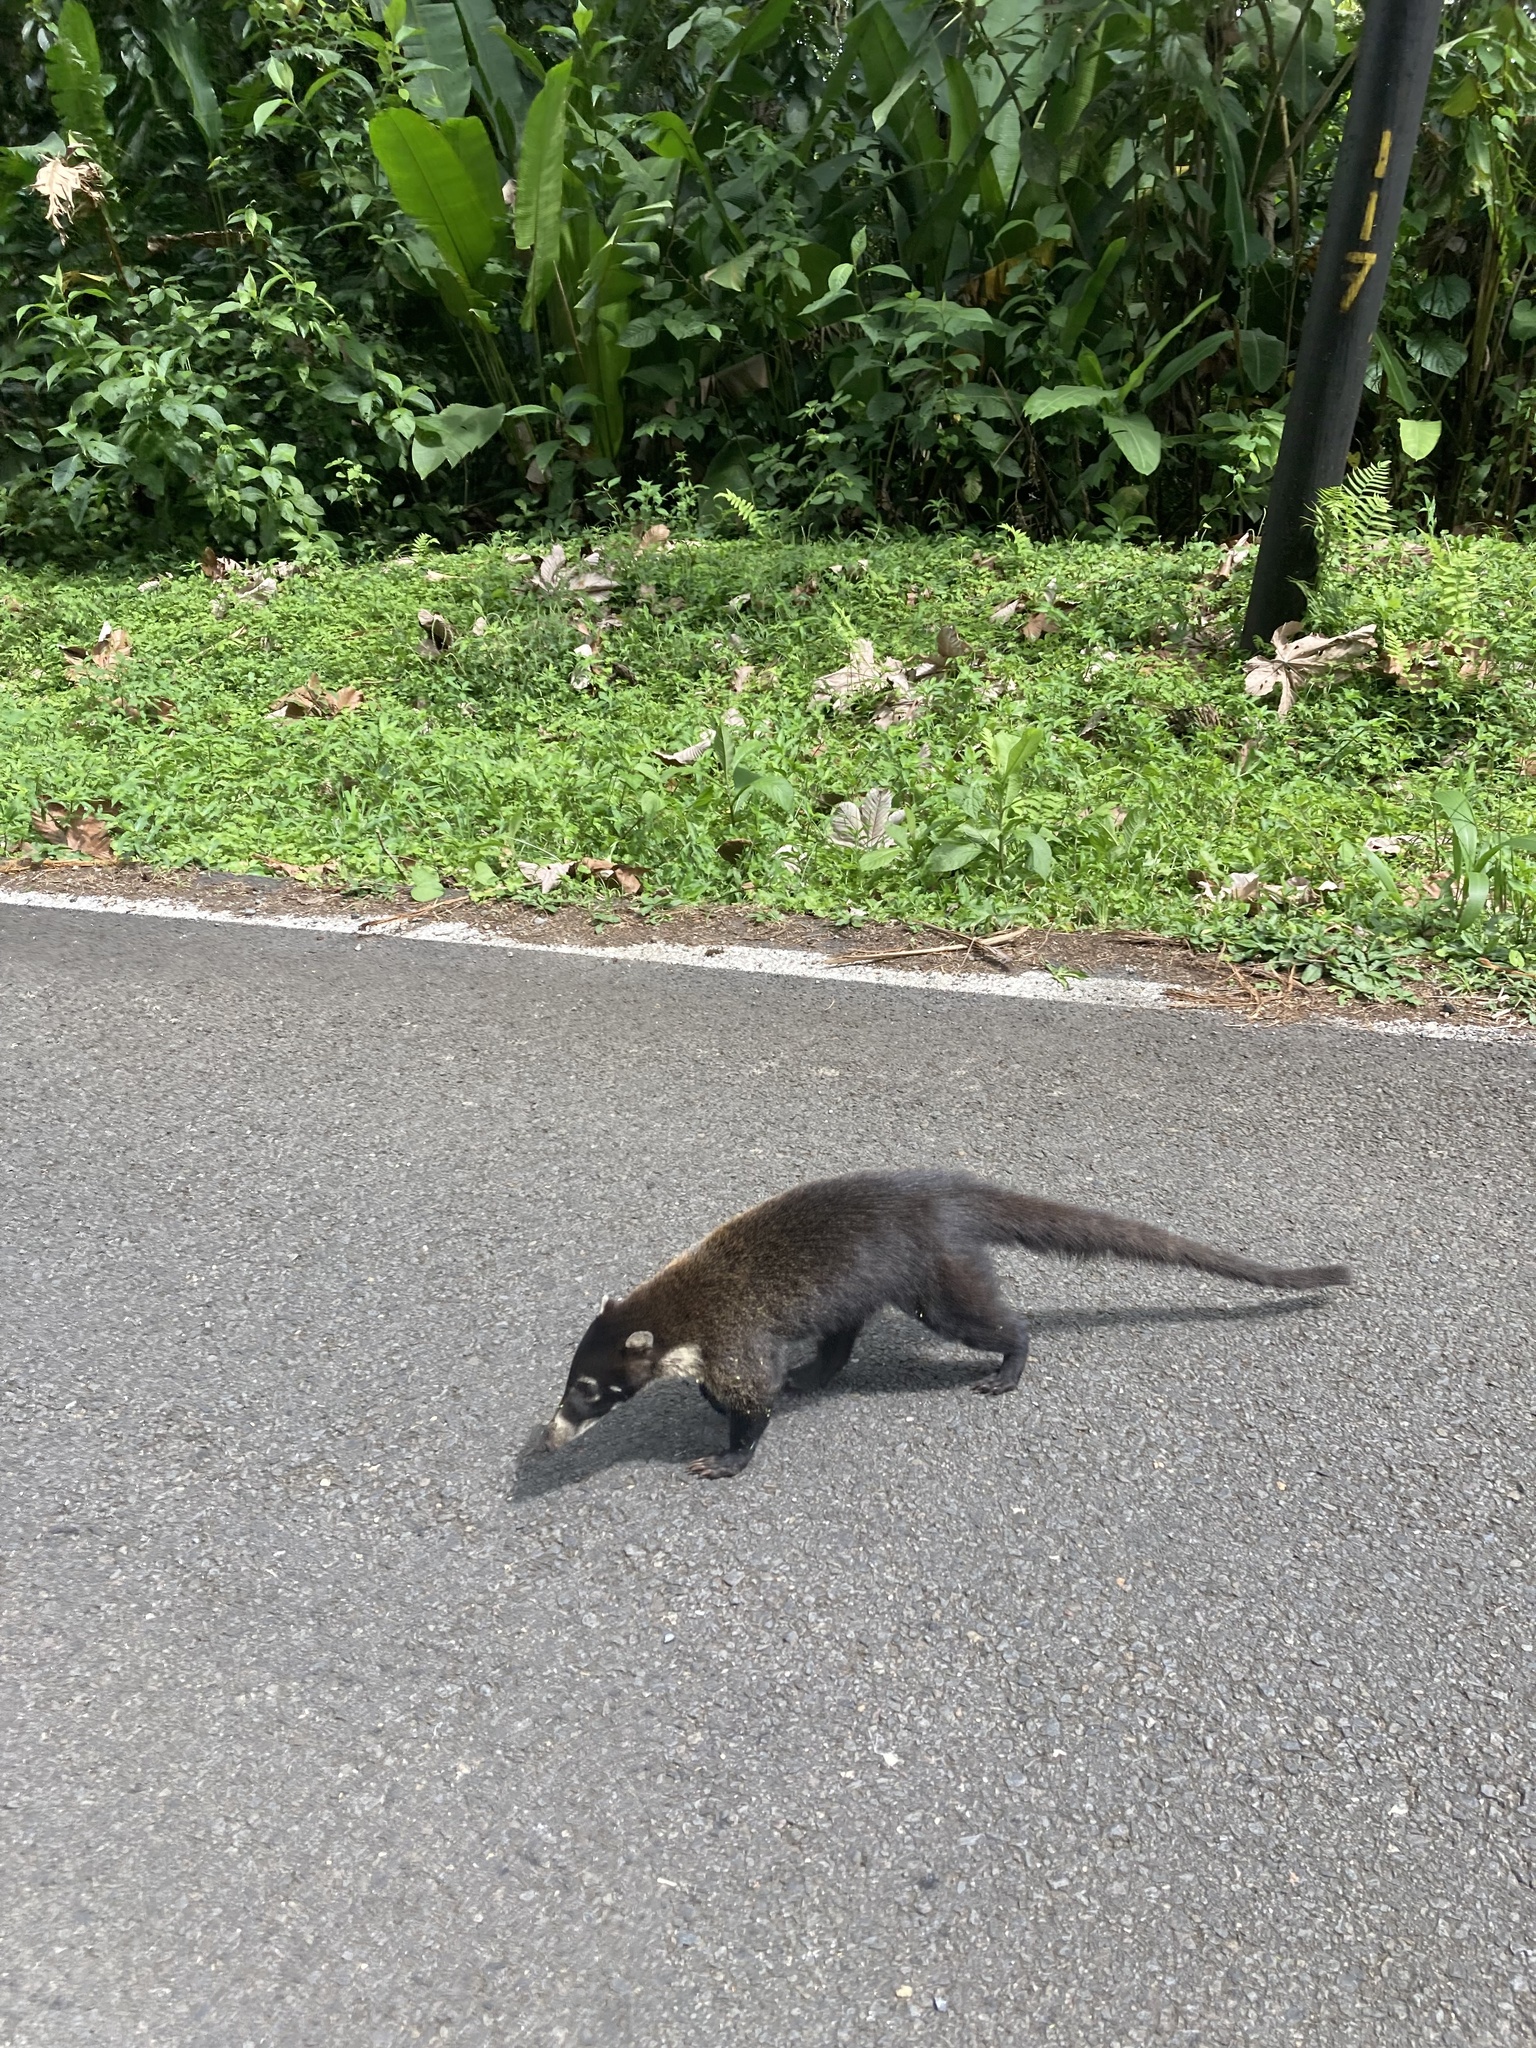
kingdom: Animalia
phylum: Chordata
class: Mammalia
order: Carnivora
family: Procyonidae
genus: Nasua
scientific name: Nasua narica
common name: White-nosed coati
